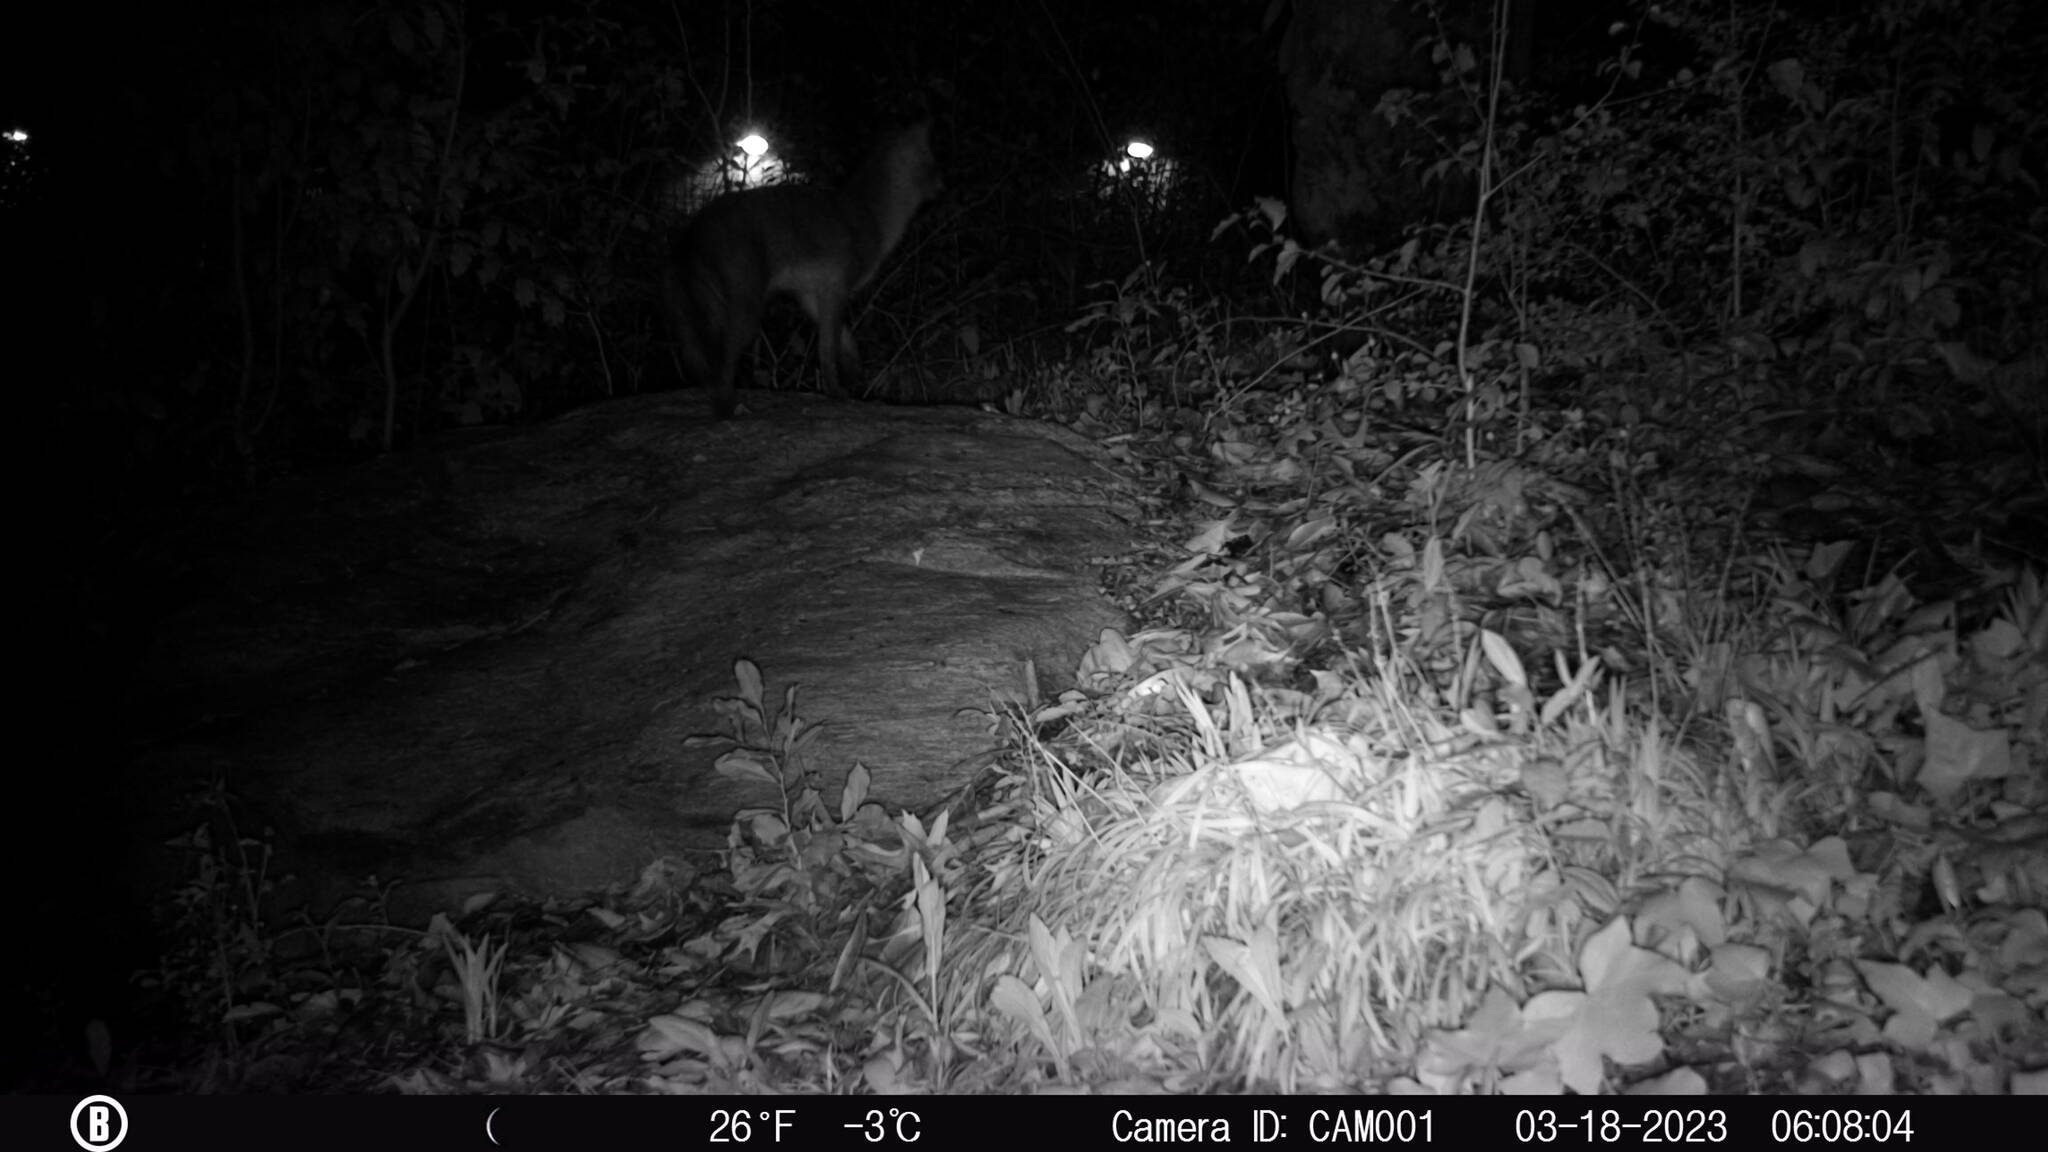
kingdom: Animalia
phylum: Chordata
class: Mammalia
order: Carnivora
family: Canidae
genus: Urocyon
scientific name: Urocyon cinereoargenteus
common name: Gray fox
